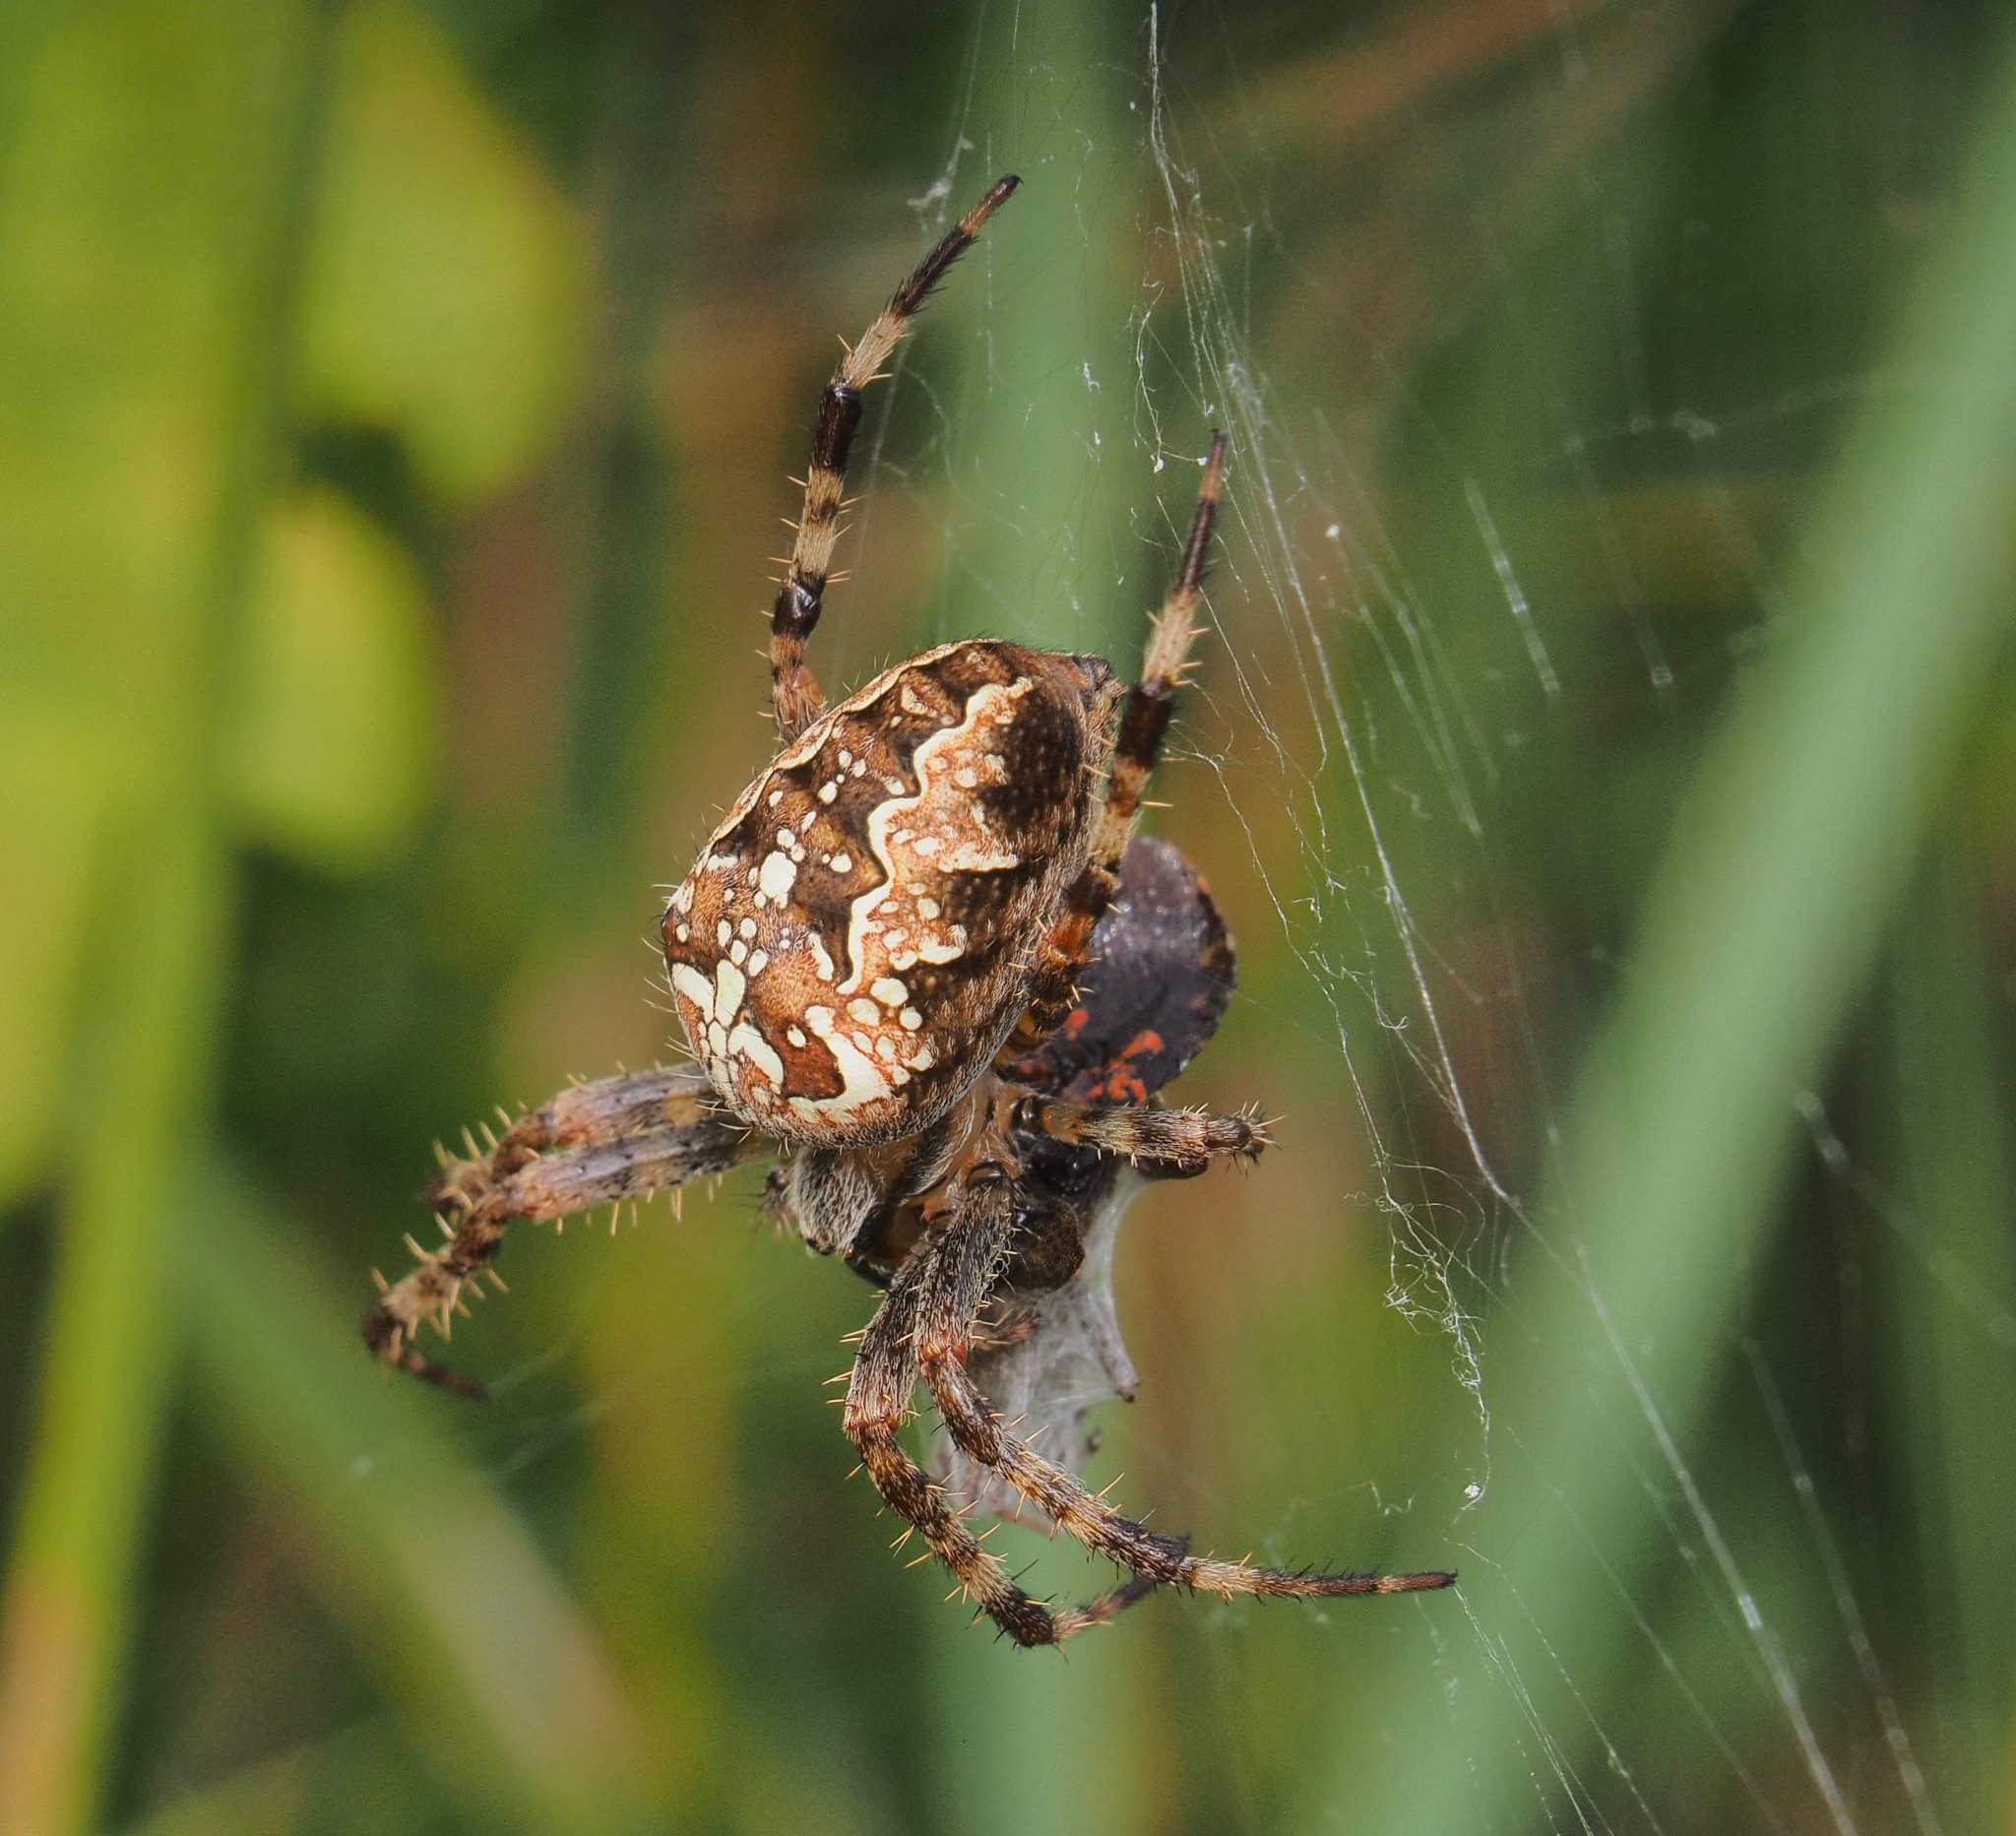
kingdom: Animalia
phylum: Arthropoda
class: Arachnida
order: Araneae
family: Araneidae
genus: Araneus
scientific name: Araneus diadematus
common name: Cross orbweaver
